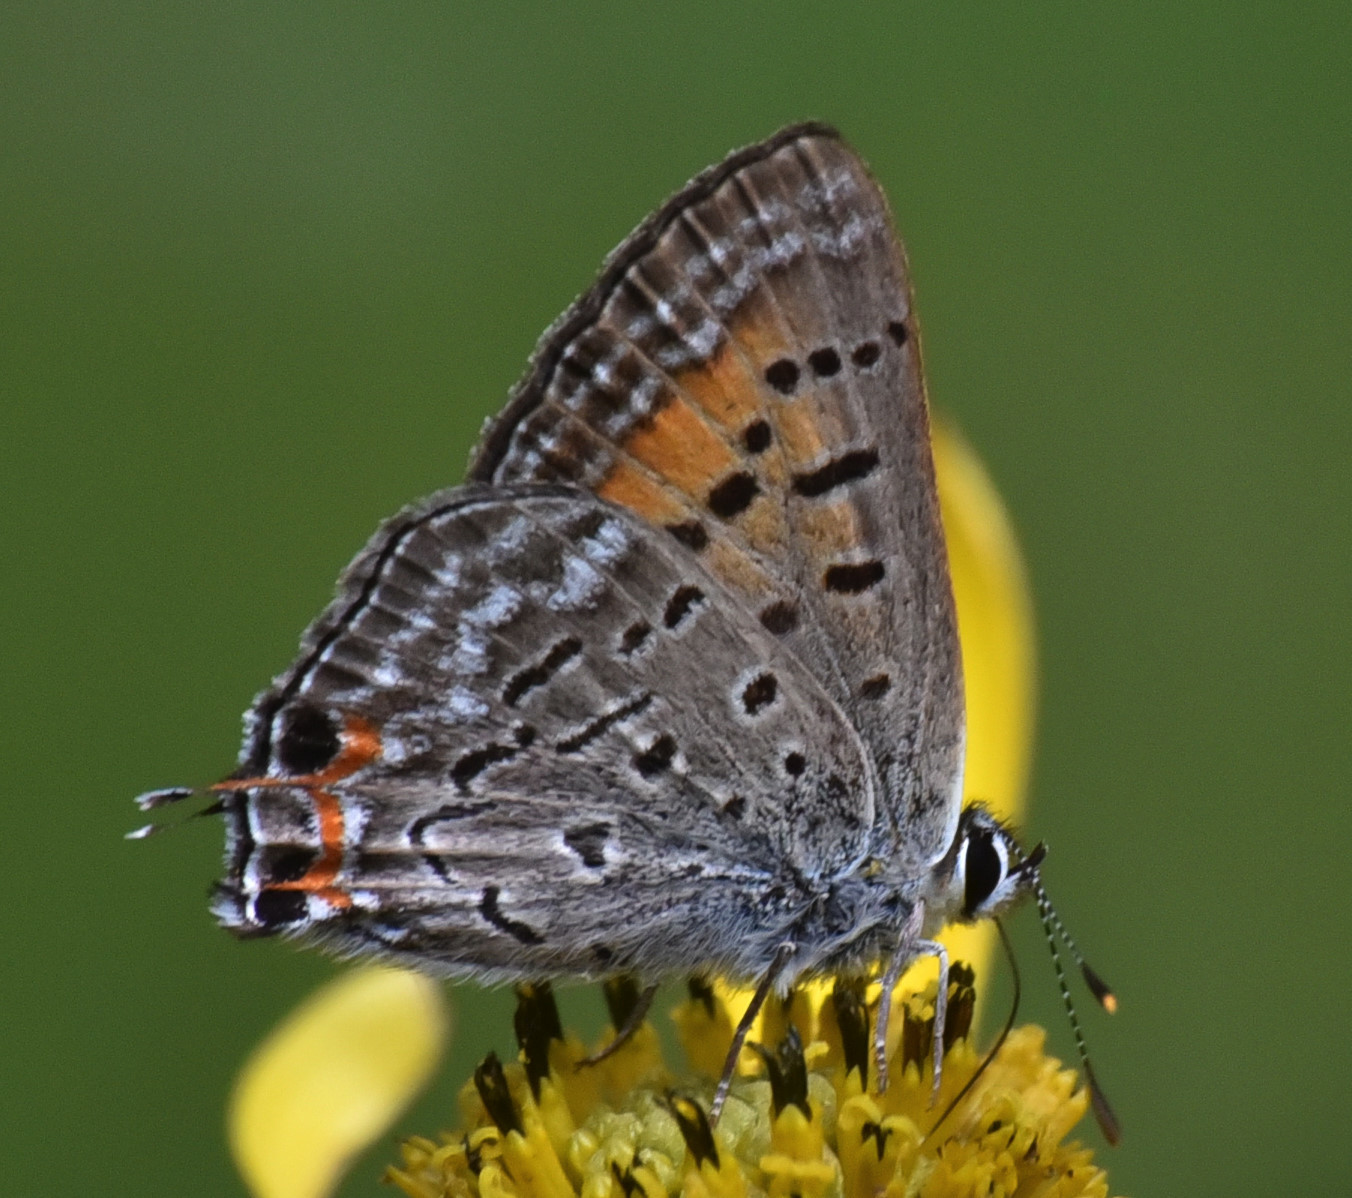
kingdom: Animalia
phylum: Arthropoda
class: Insecta
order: Lepidoptera
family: Lycaenidae
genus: Tharsalea
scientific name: Tharsalea arota
